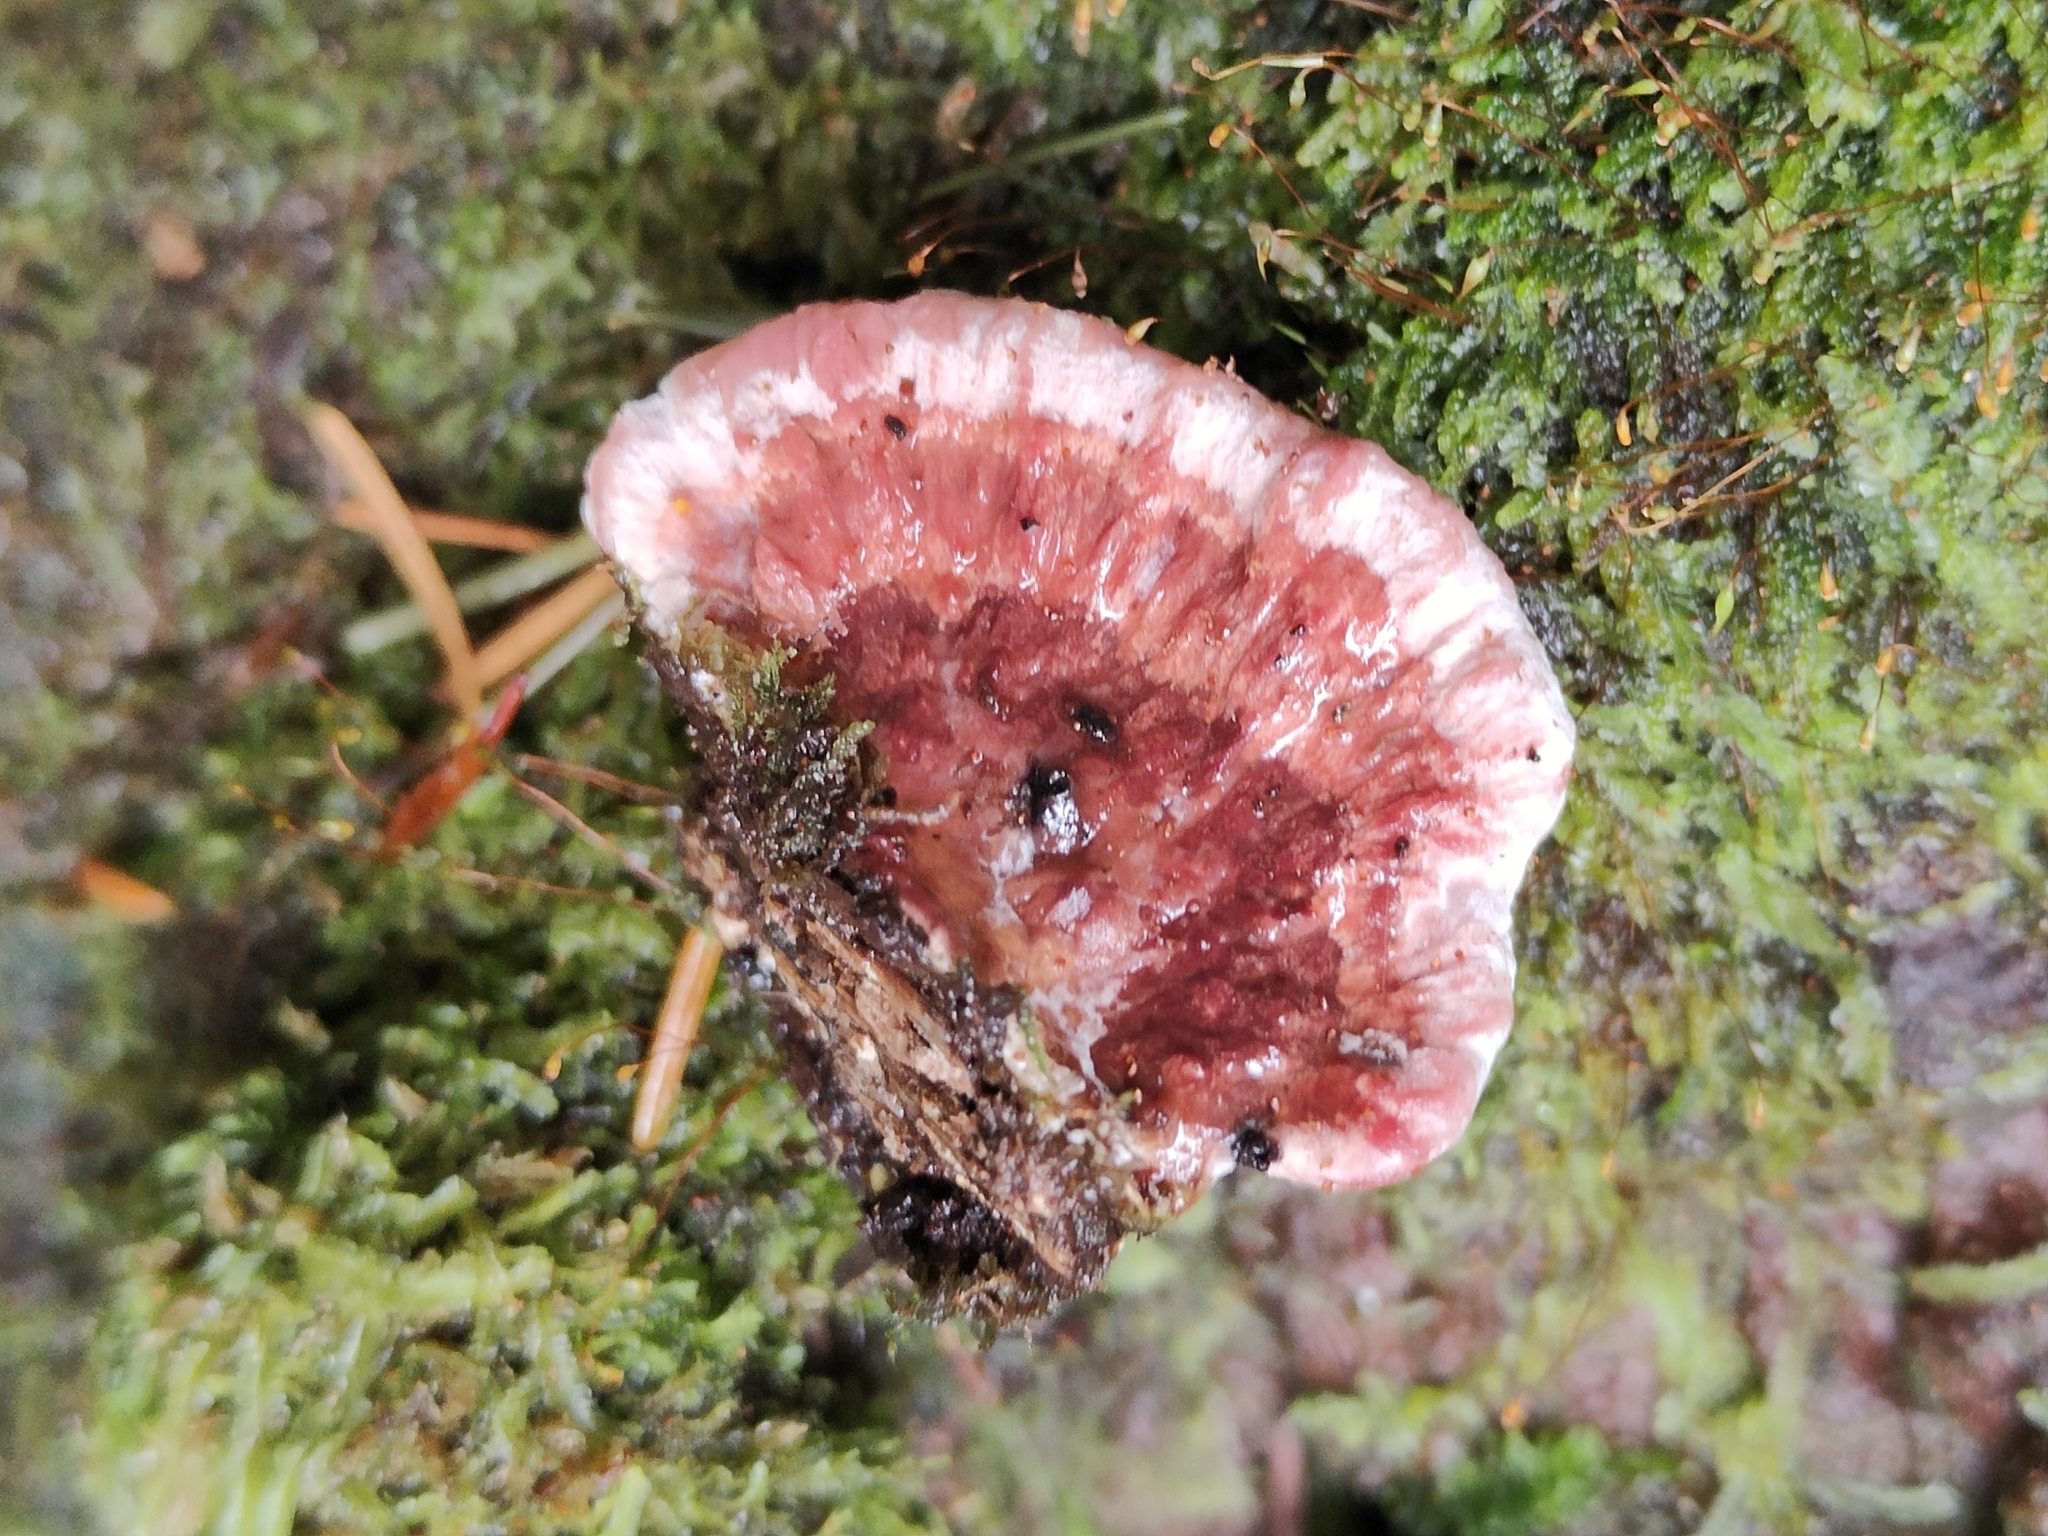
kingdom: Fungi
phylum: Basidiomycota
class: Agaricomycetes
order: Polyporales
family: Fomitopsidaceae
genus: Rhodofomitopsis
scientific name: Rhodofomitopsis lilacinogilva
